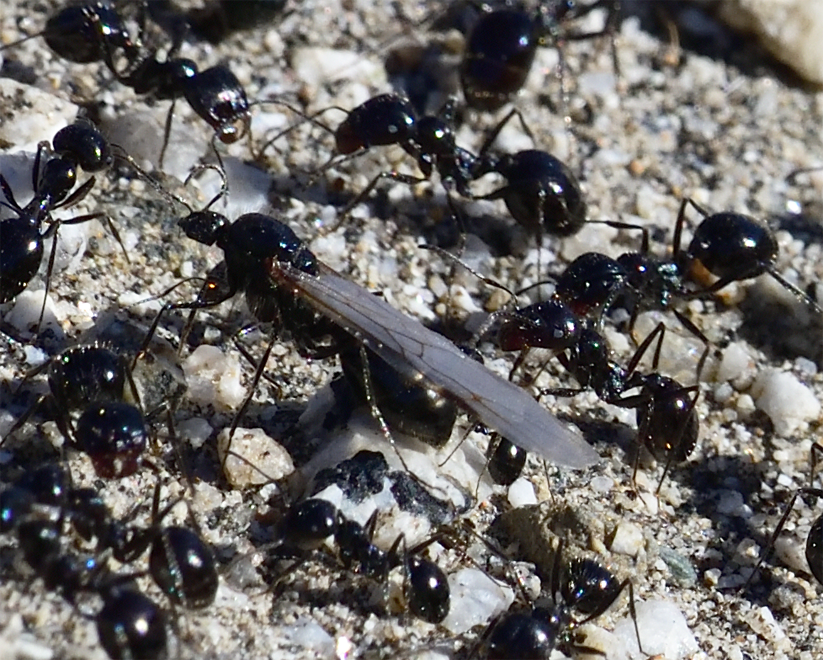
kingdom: Animalia
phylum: Arthropoda
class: Insecta
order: Hymenoptera
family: Formicidae
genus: Messor
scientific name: Messor pergandei
